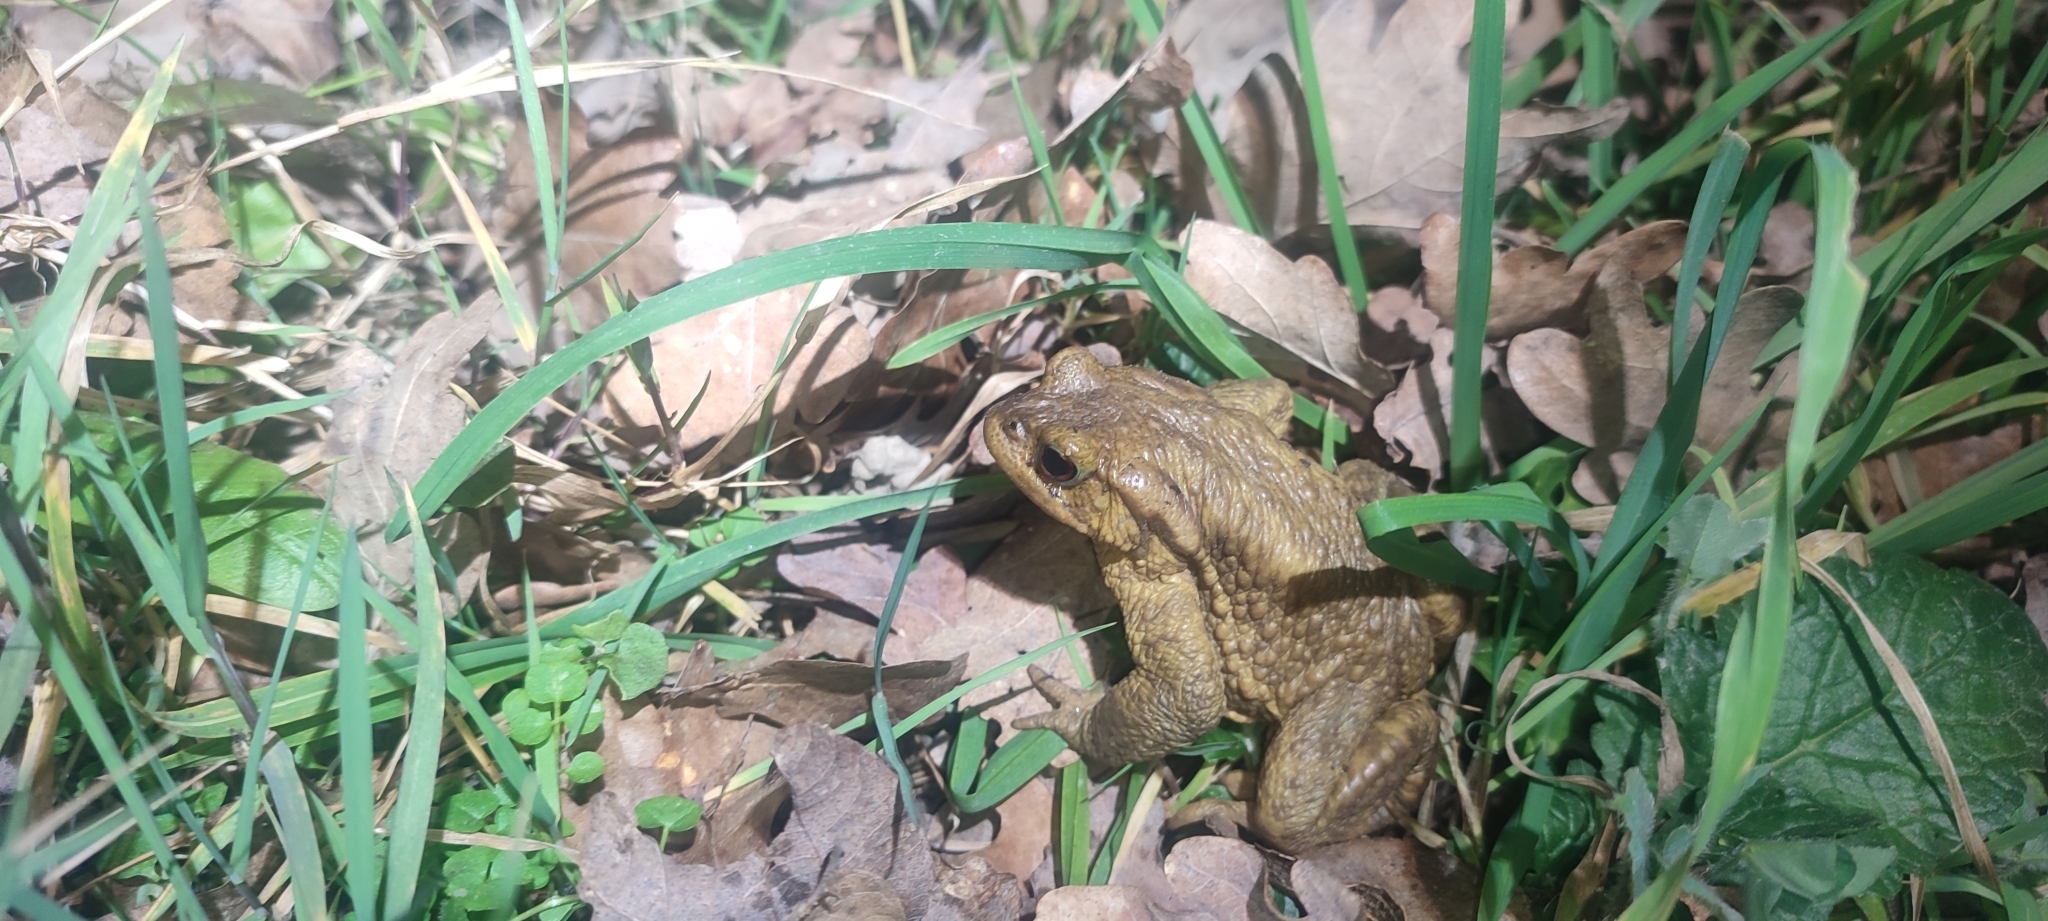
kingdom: Animalia
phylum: Chordata
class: Amphibia
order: Anura
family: Bufonidae
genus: Bufo
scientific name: Bufo spinosus
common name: Western common toad
